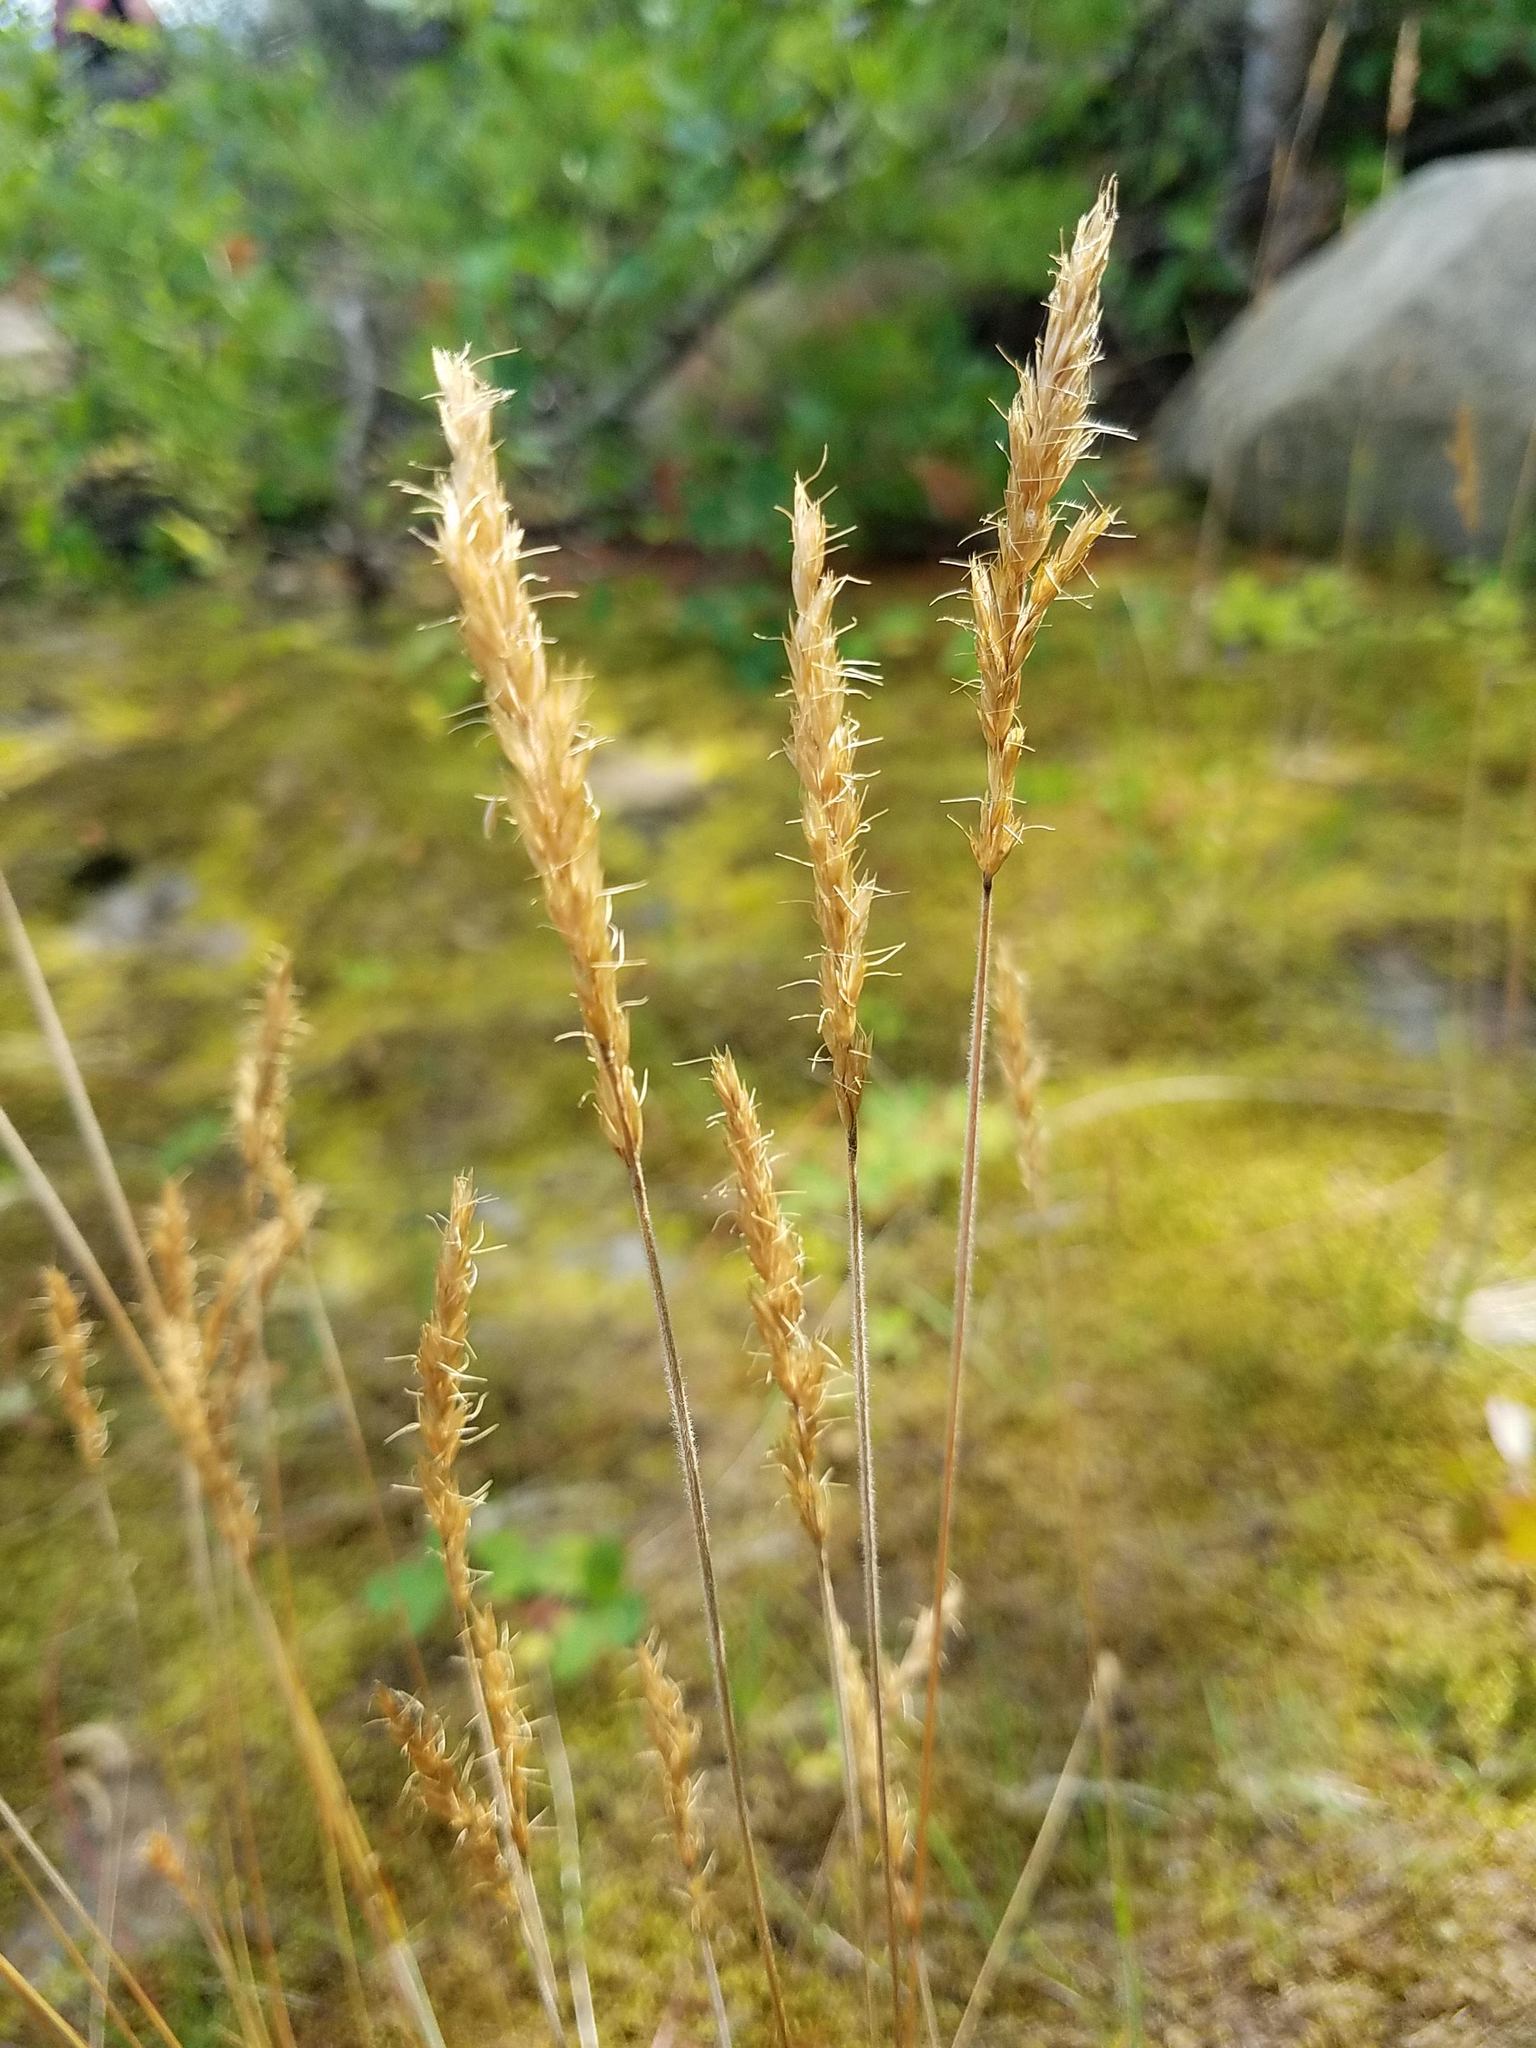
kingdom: Plantae
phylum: Tracheophyta
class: Liliopsida
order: Poales
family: Poaceae
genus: Koeleria
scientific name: Koeleria spicata
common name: Mountain trisetum
